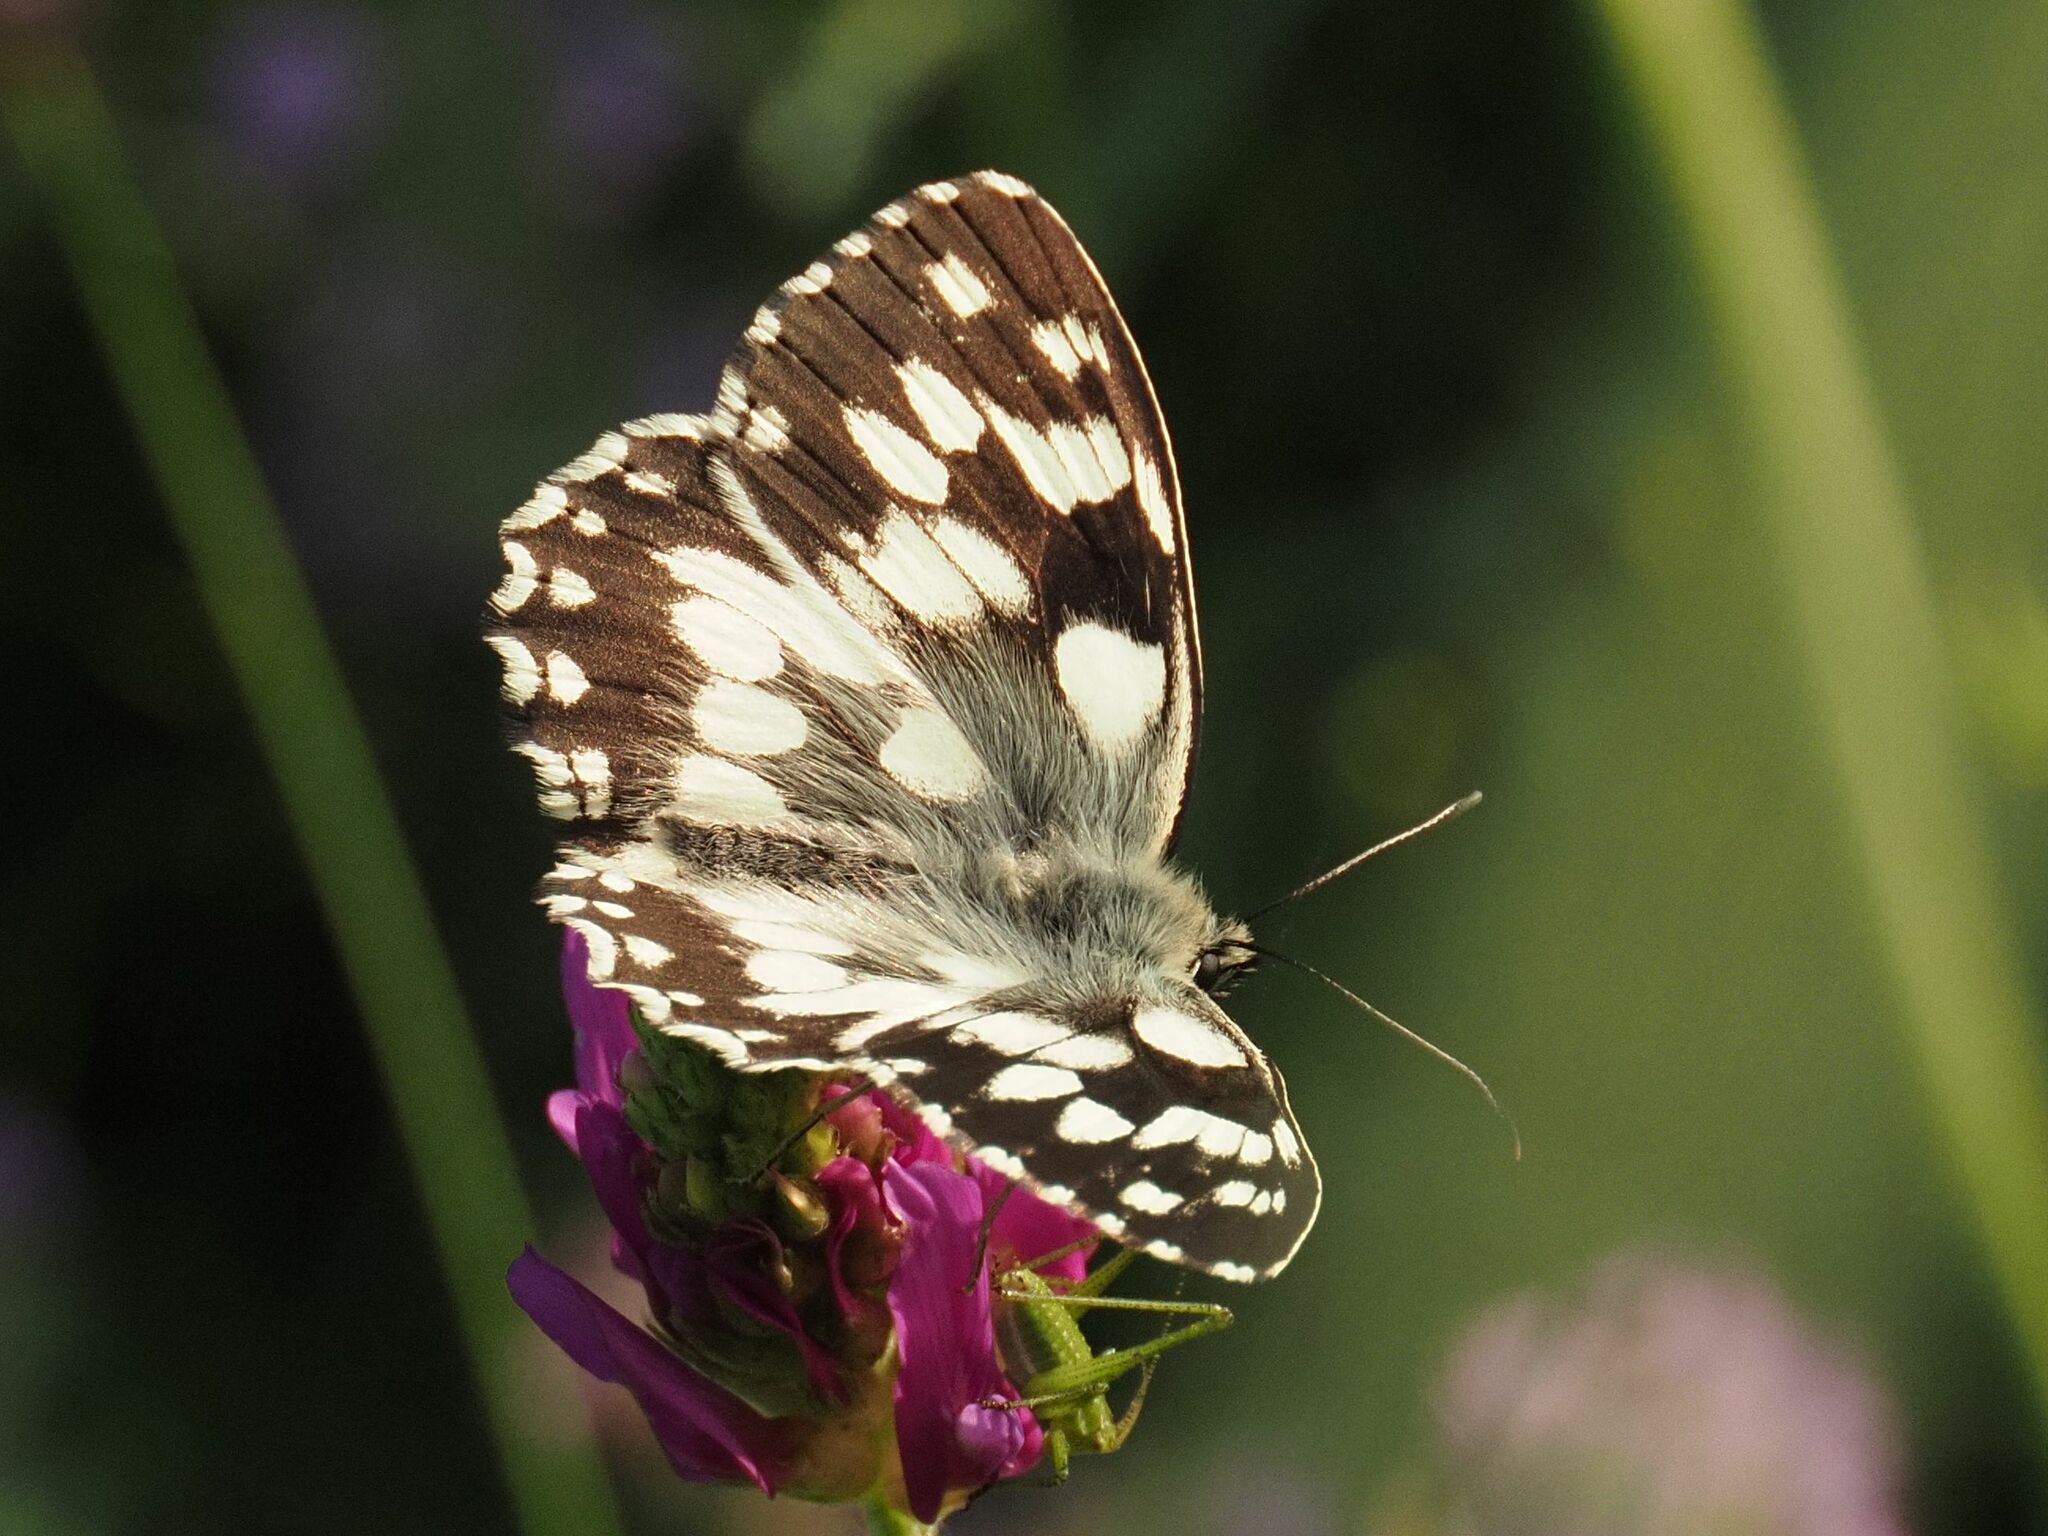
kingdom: Animalia
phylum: Arthropoda
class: Insecta
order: Lepidoptera
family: Nymphalidae
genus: Melanargia
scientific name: Melanargia galathea
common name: Marbled white
